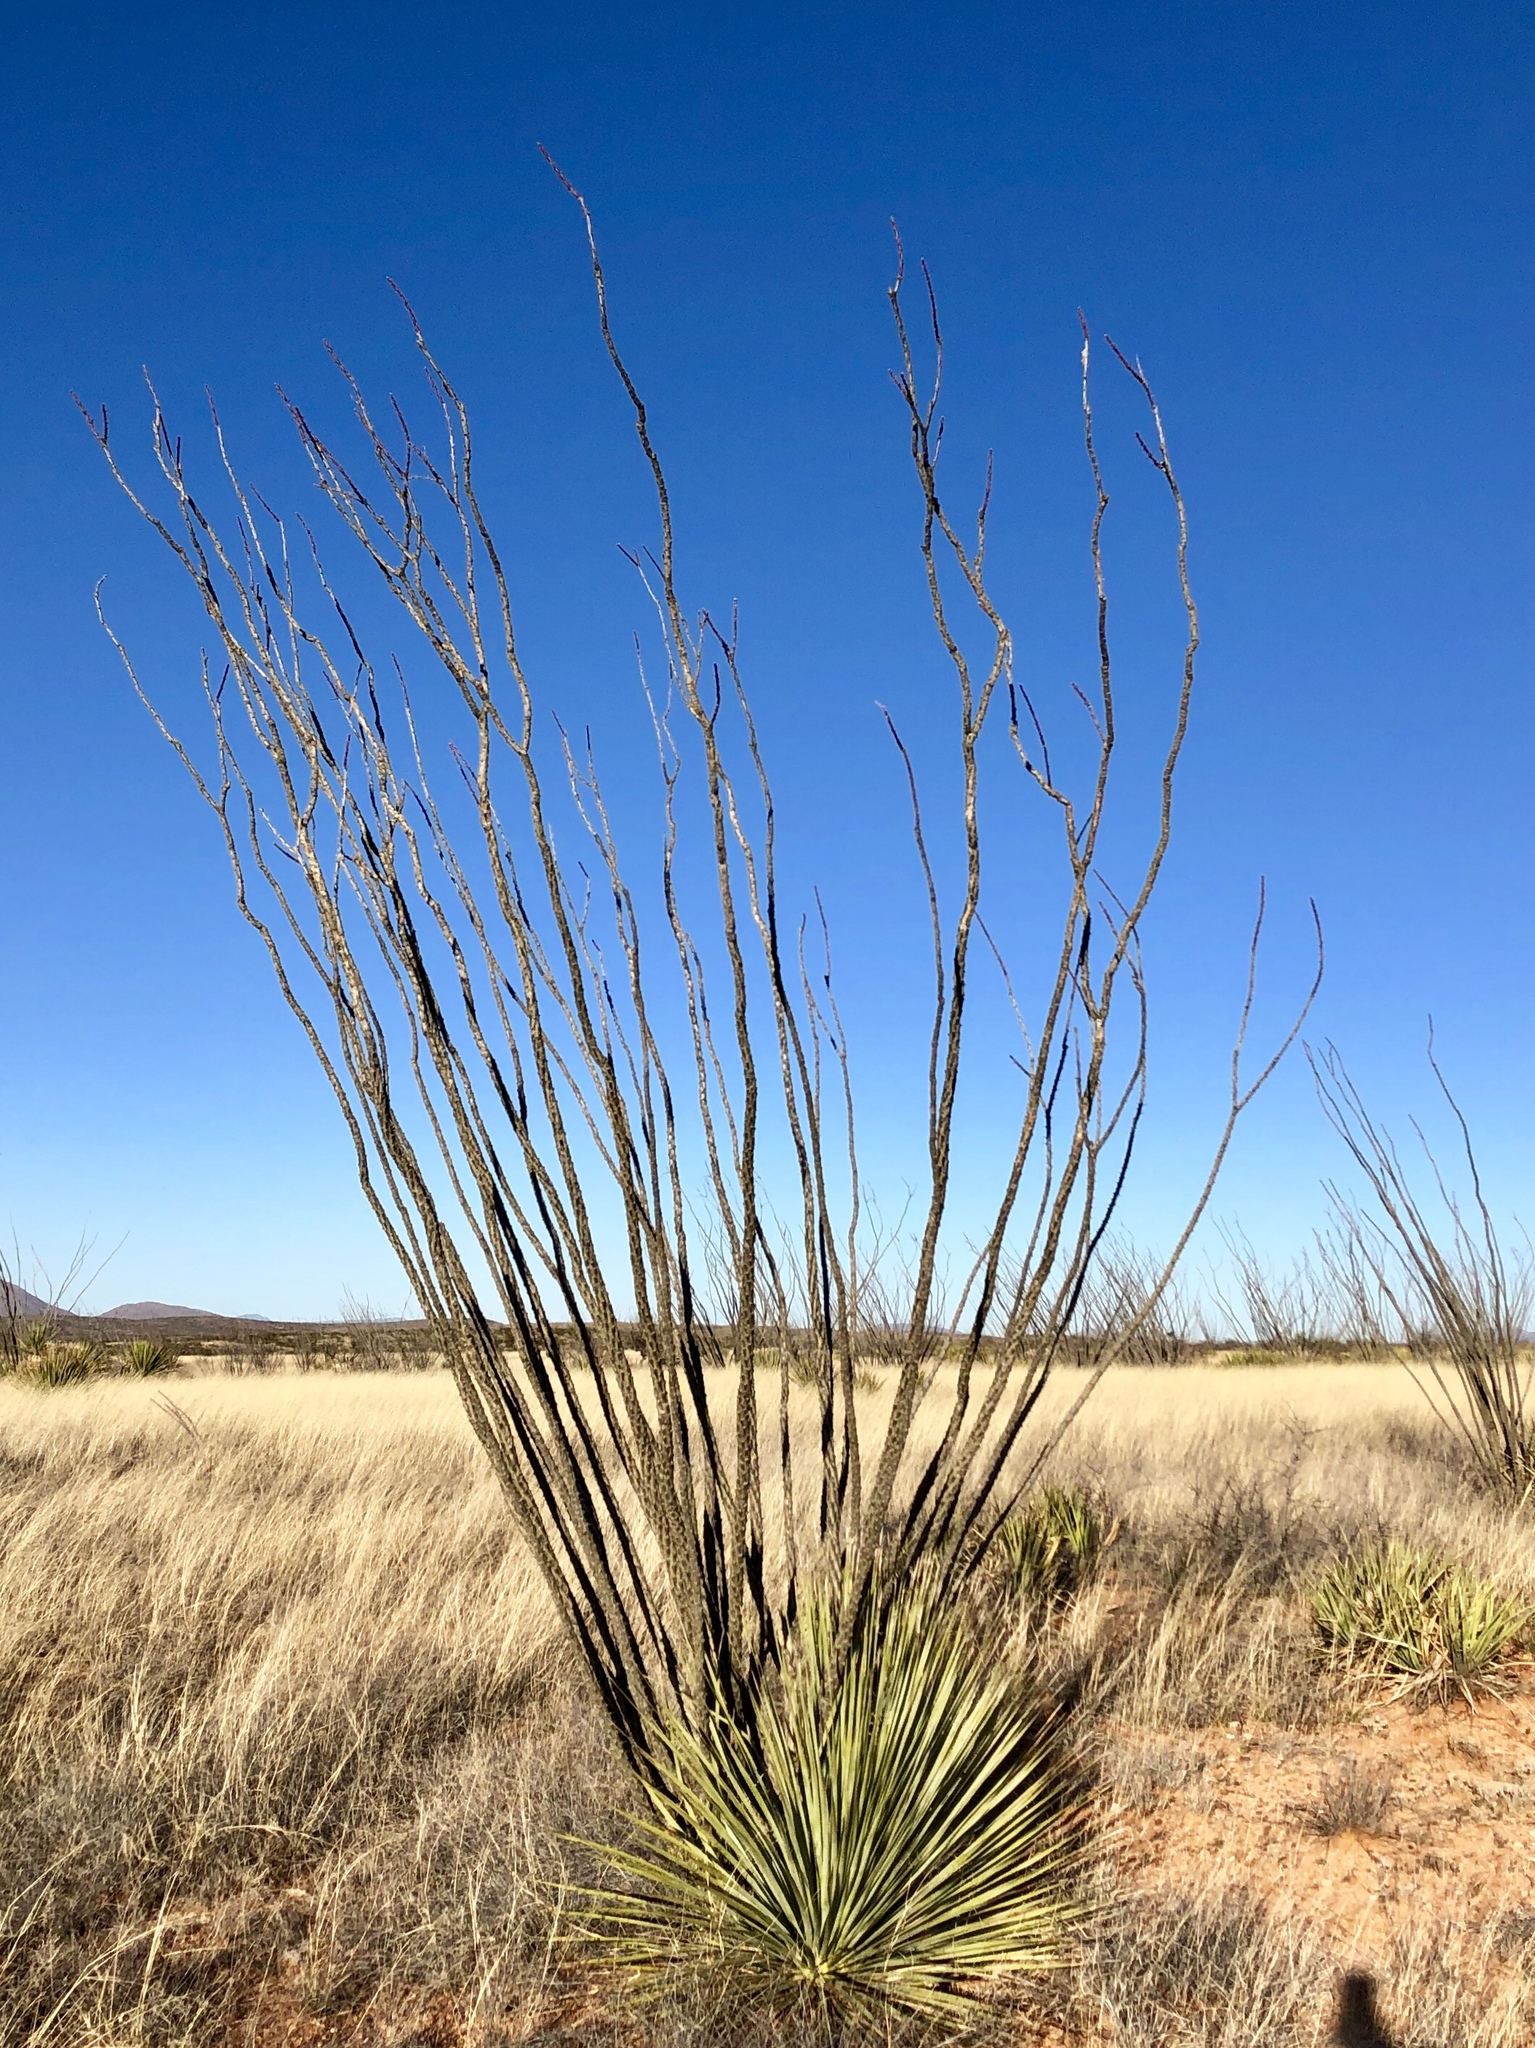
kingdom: Plantae
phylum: Tracheophyta
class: Magnoliopsida
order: Ericales
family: Fouquieriaceae
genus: Fouquieria
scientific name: Fouquieria splendens
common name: Vine-cactus
